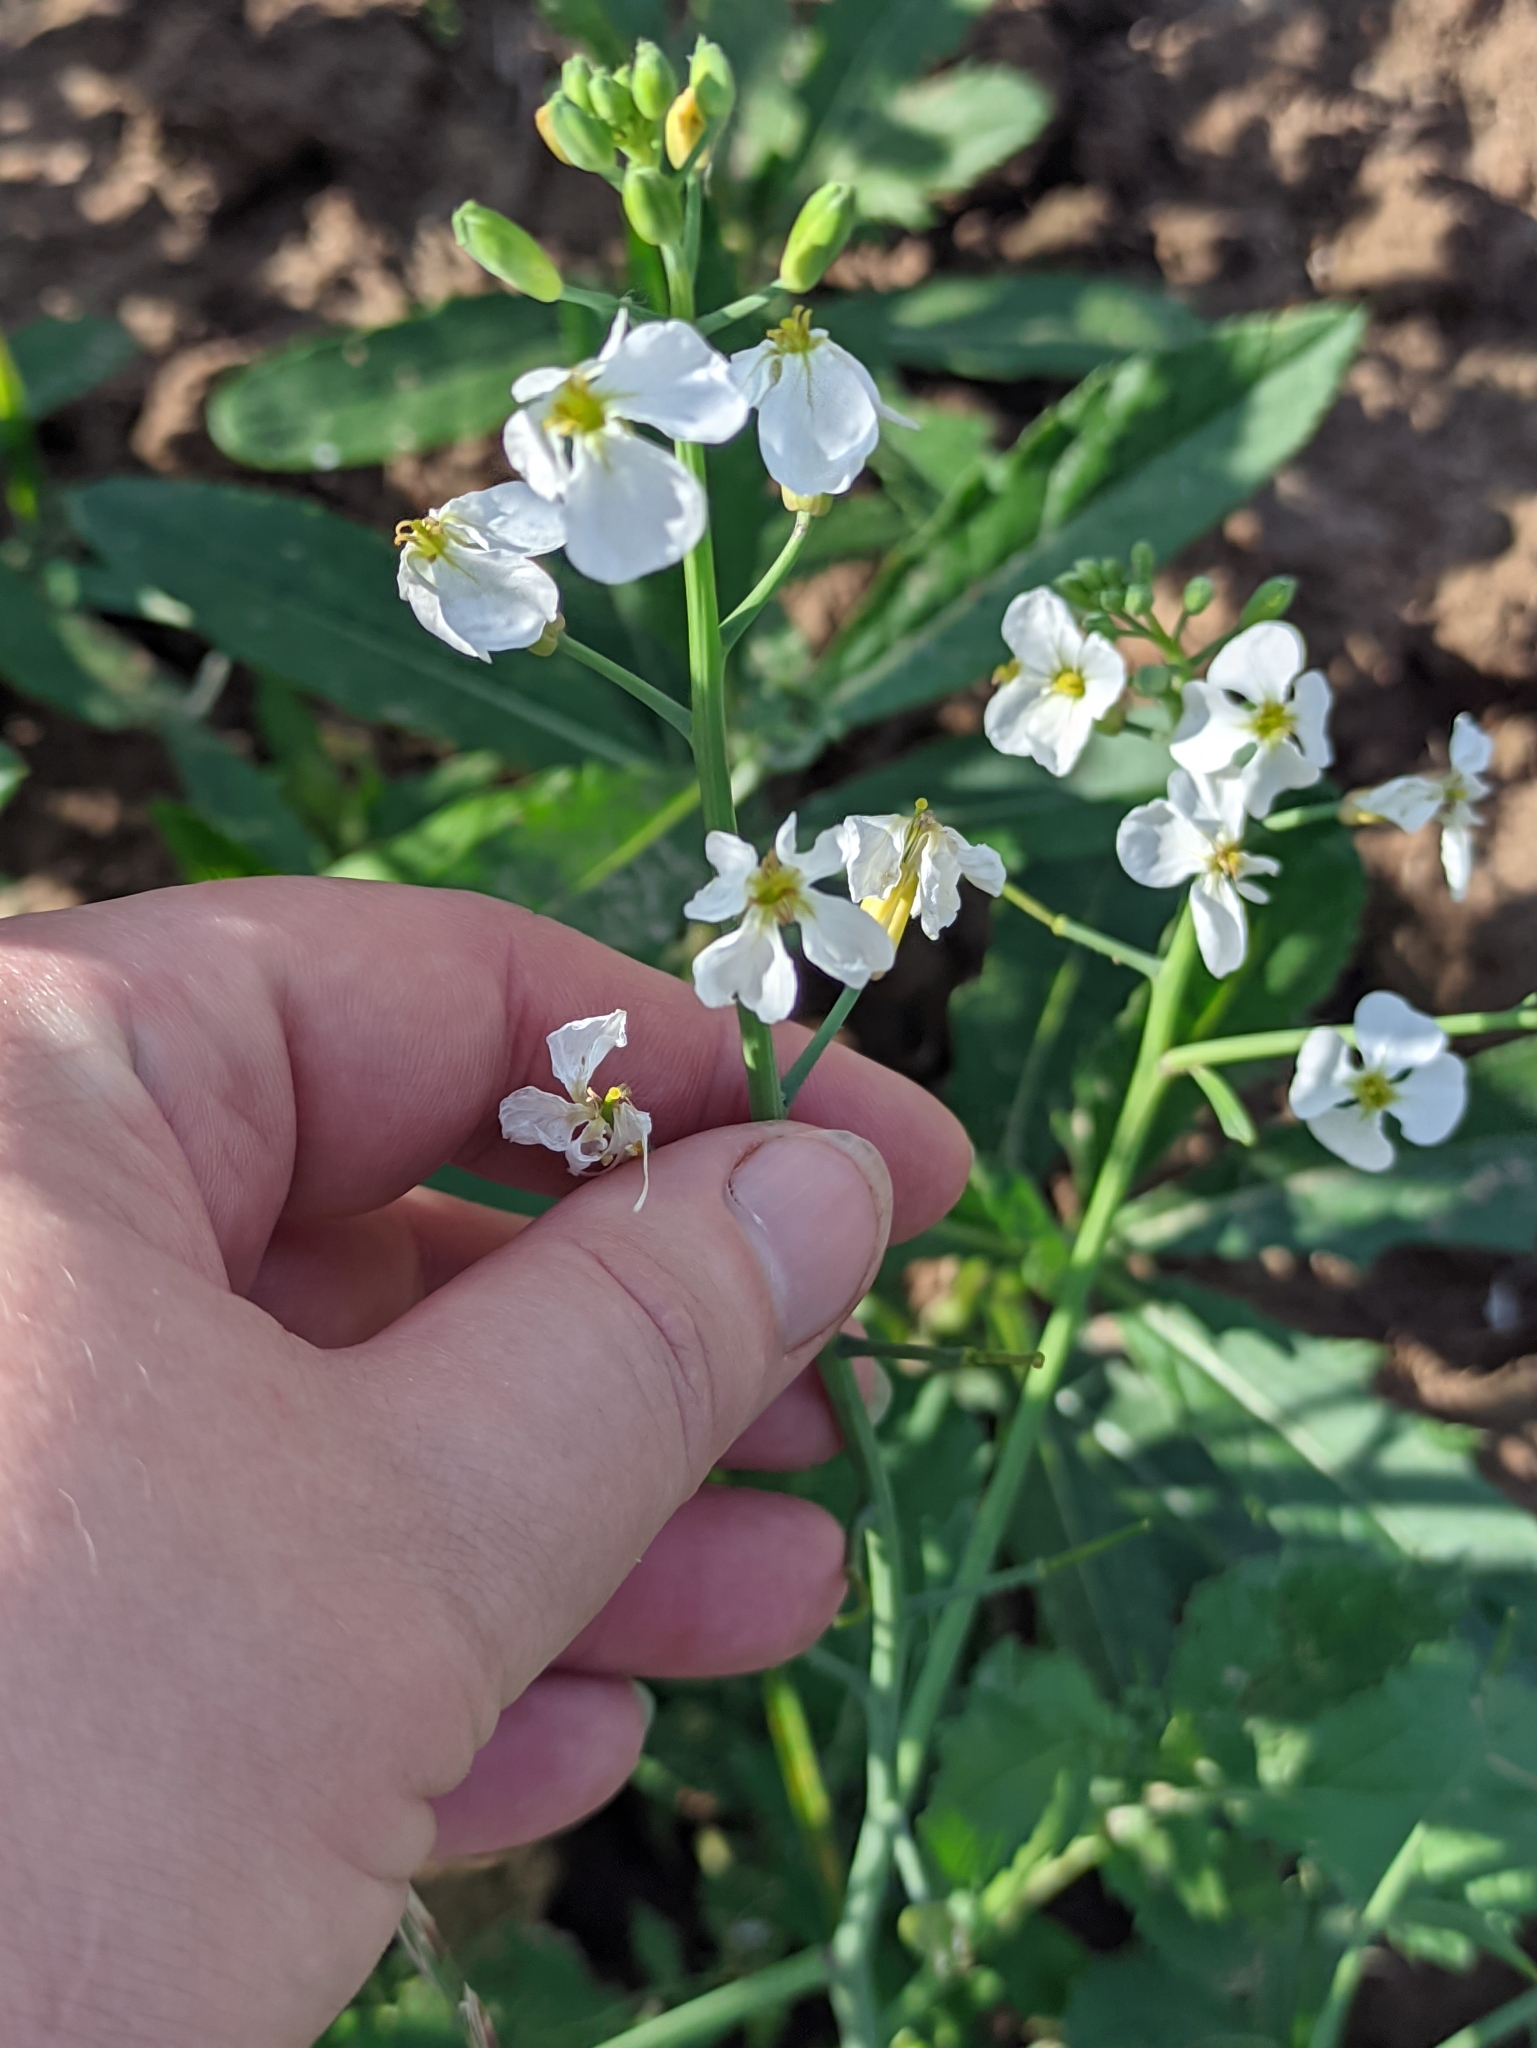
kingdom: Plantae
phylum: Tracheophyta
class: Magnoliopsida
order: Brassicales
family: Brassicaceae
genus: Armoracia
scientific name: Armoracia rusticana
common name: Horseradish
